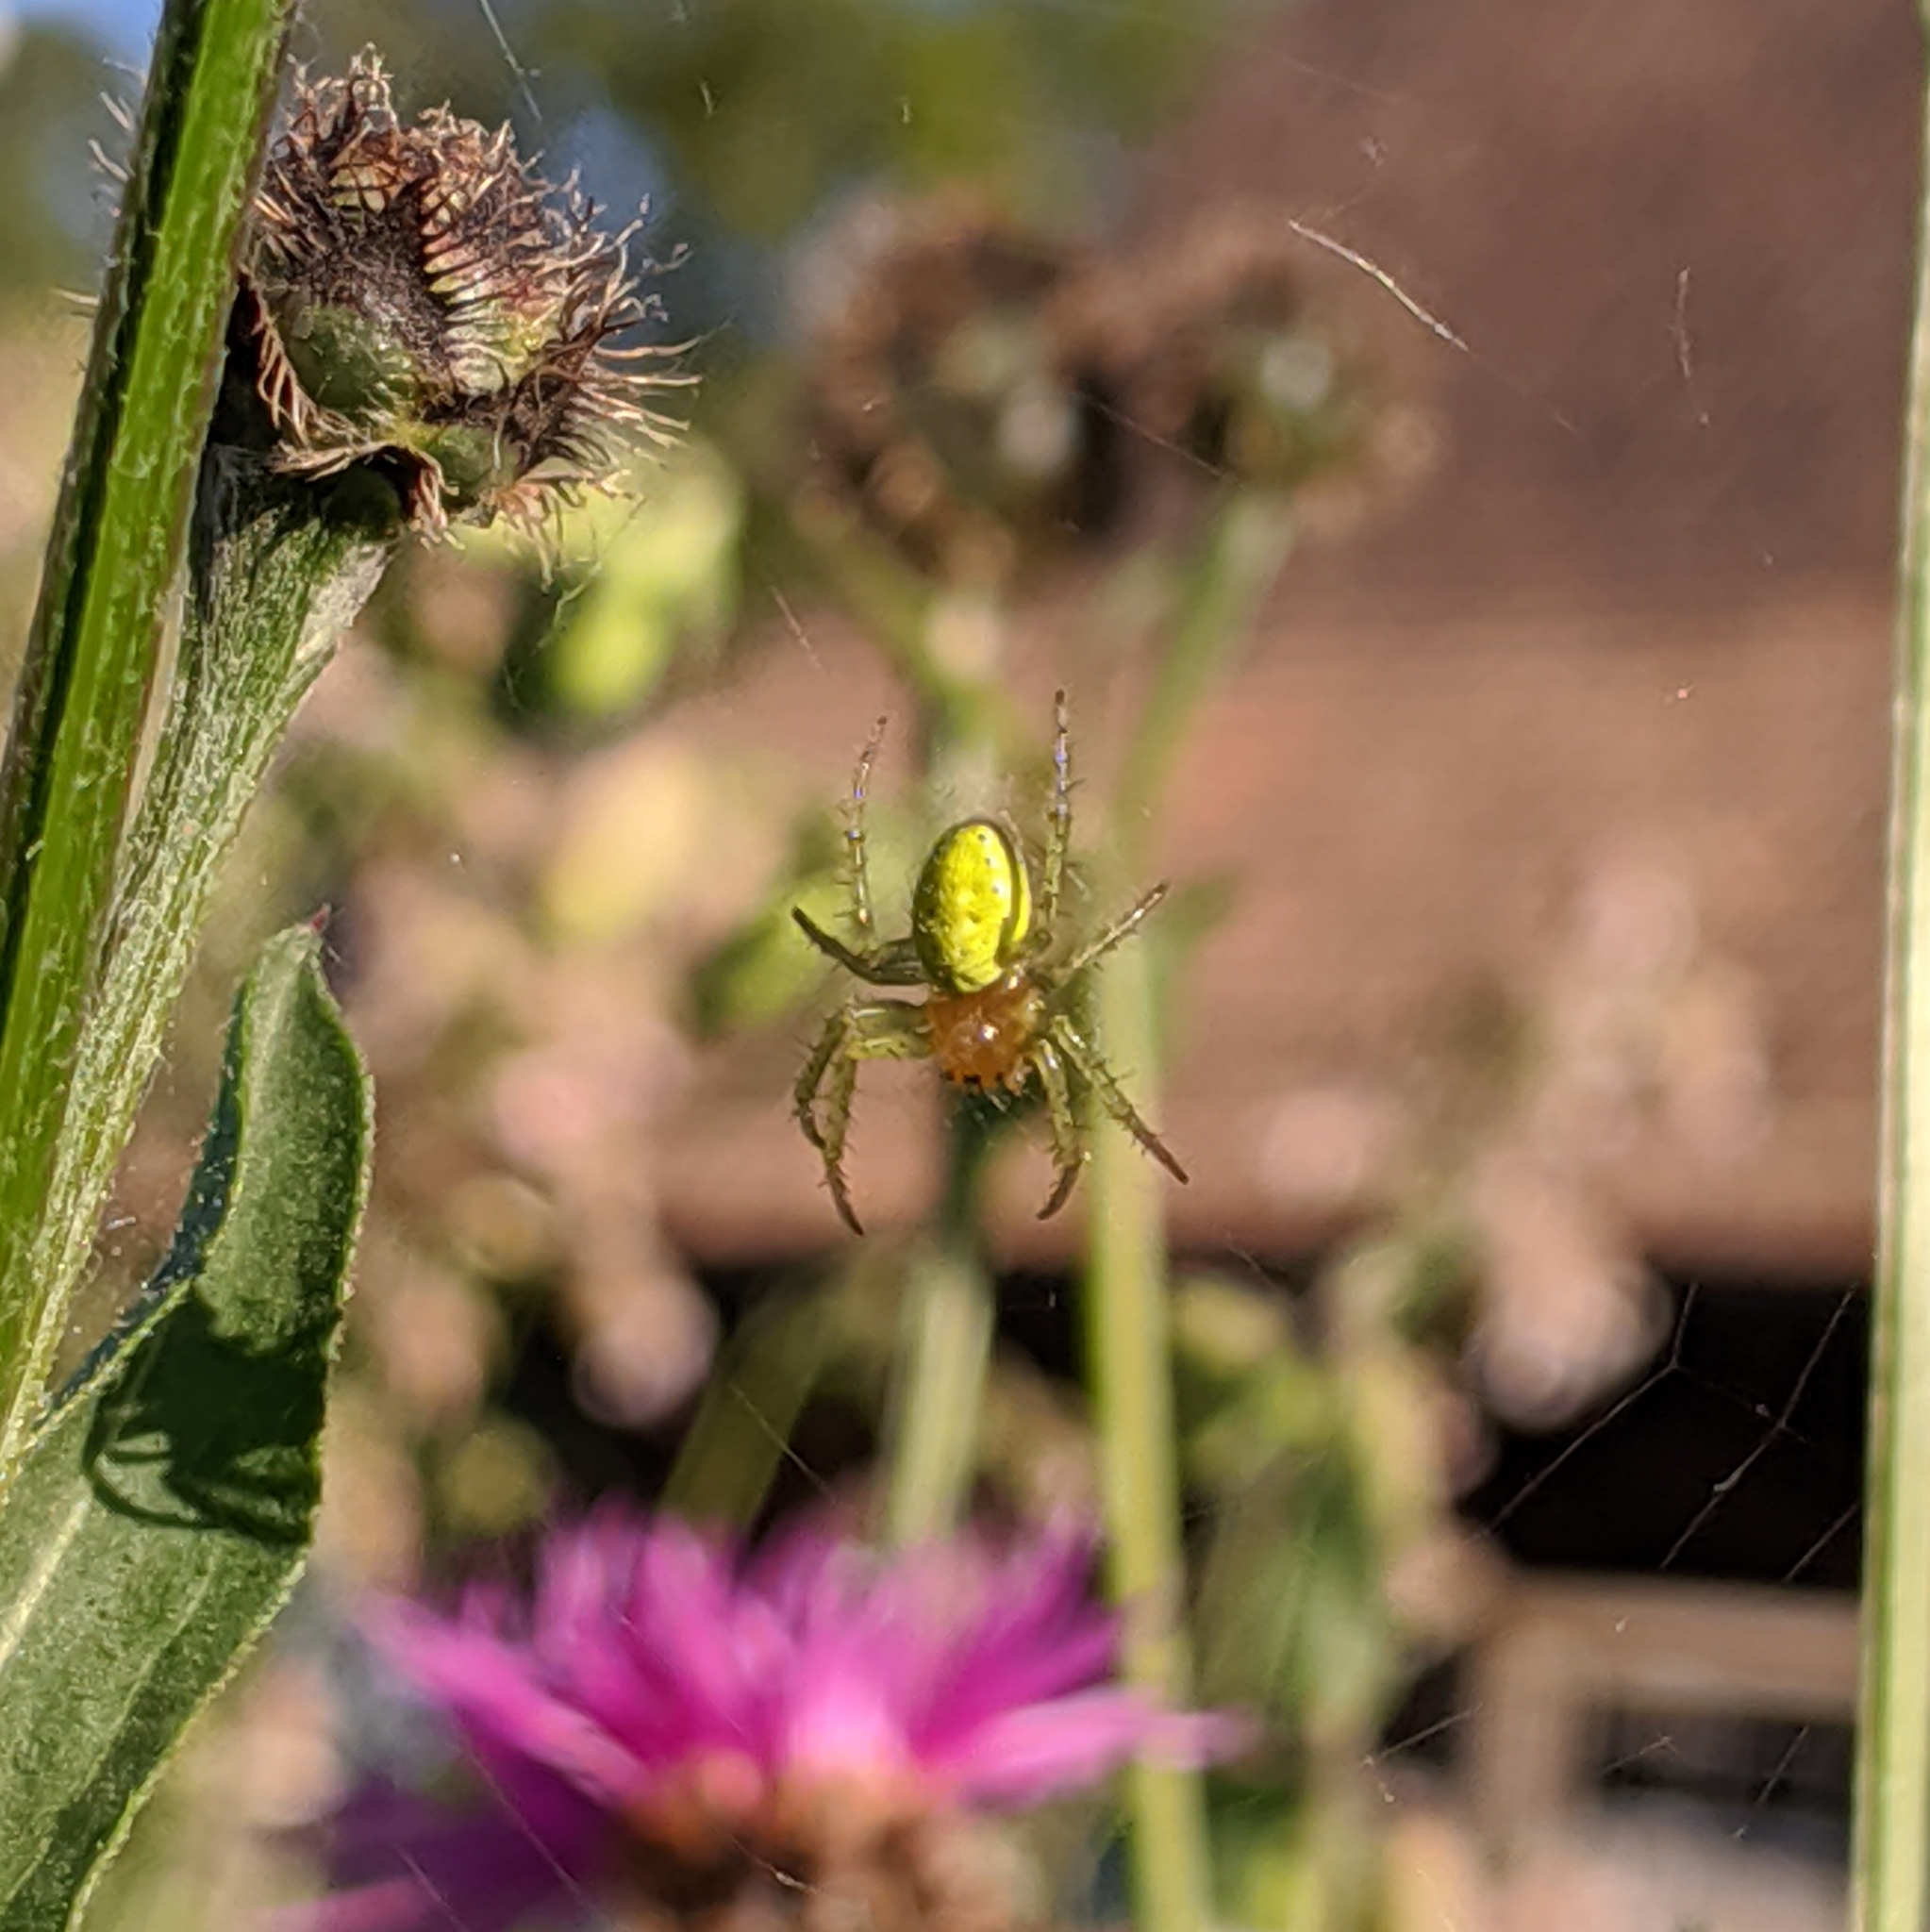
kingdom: Animalia
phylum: Arthropoda
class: Arachnida
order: Araneae
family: Araneidae
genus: Araniella
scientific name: Araniella
